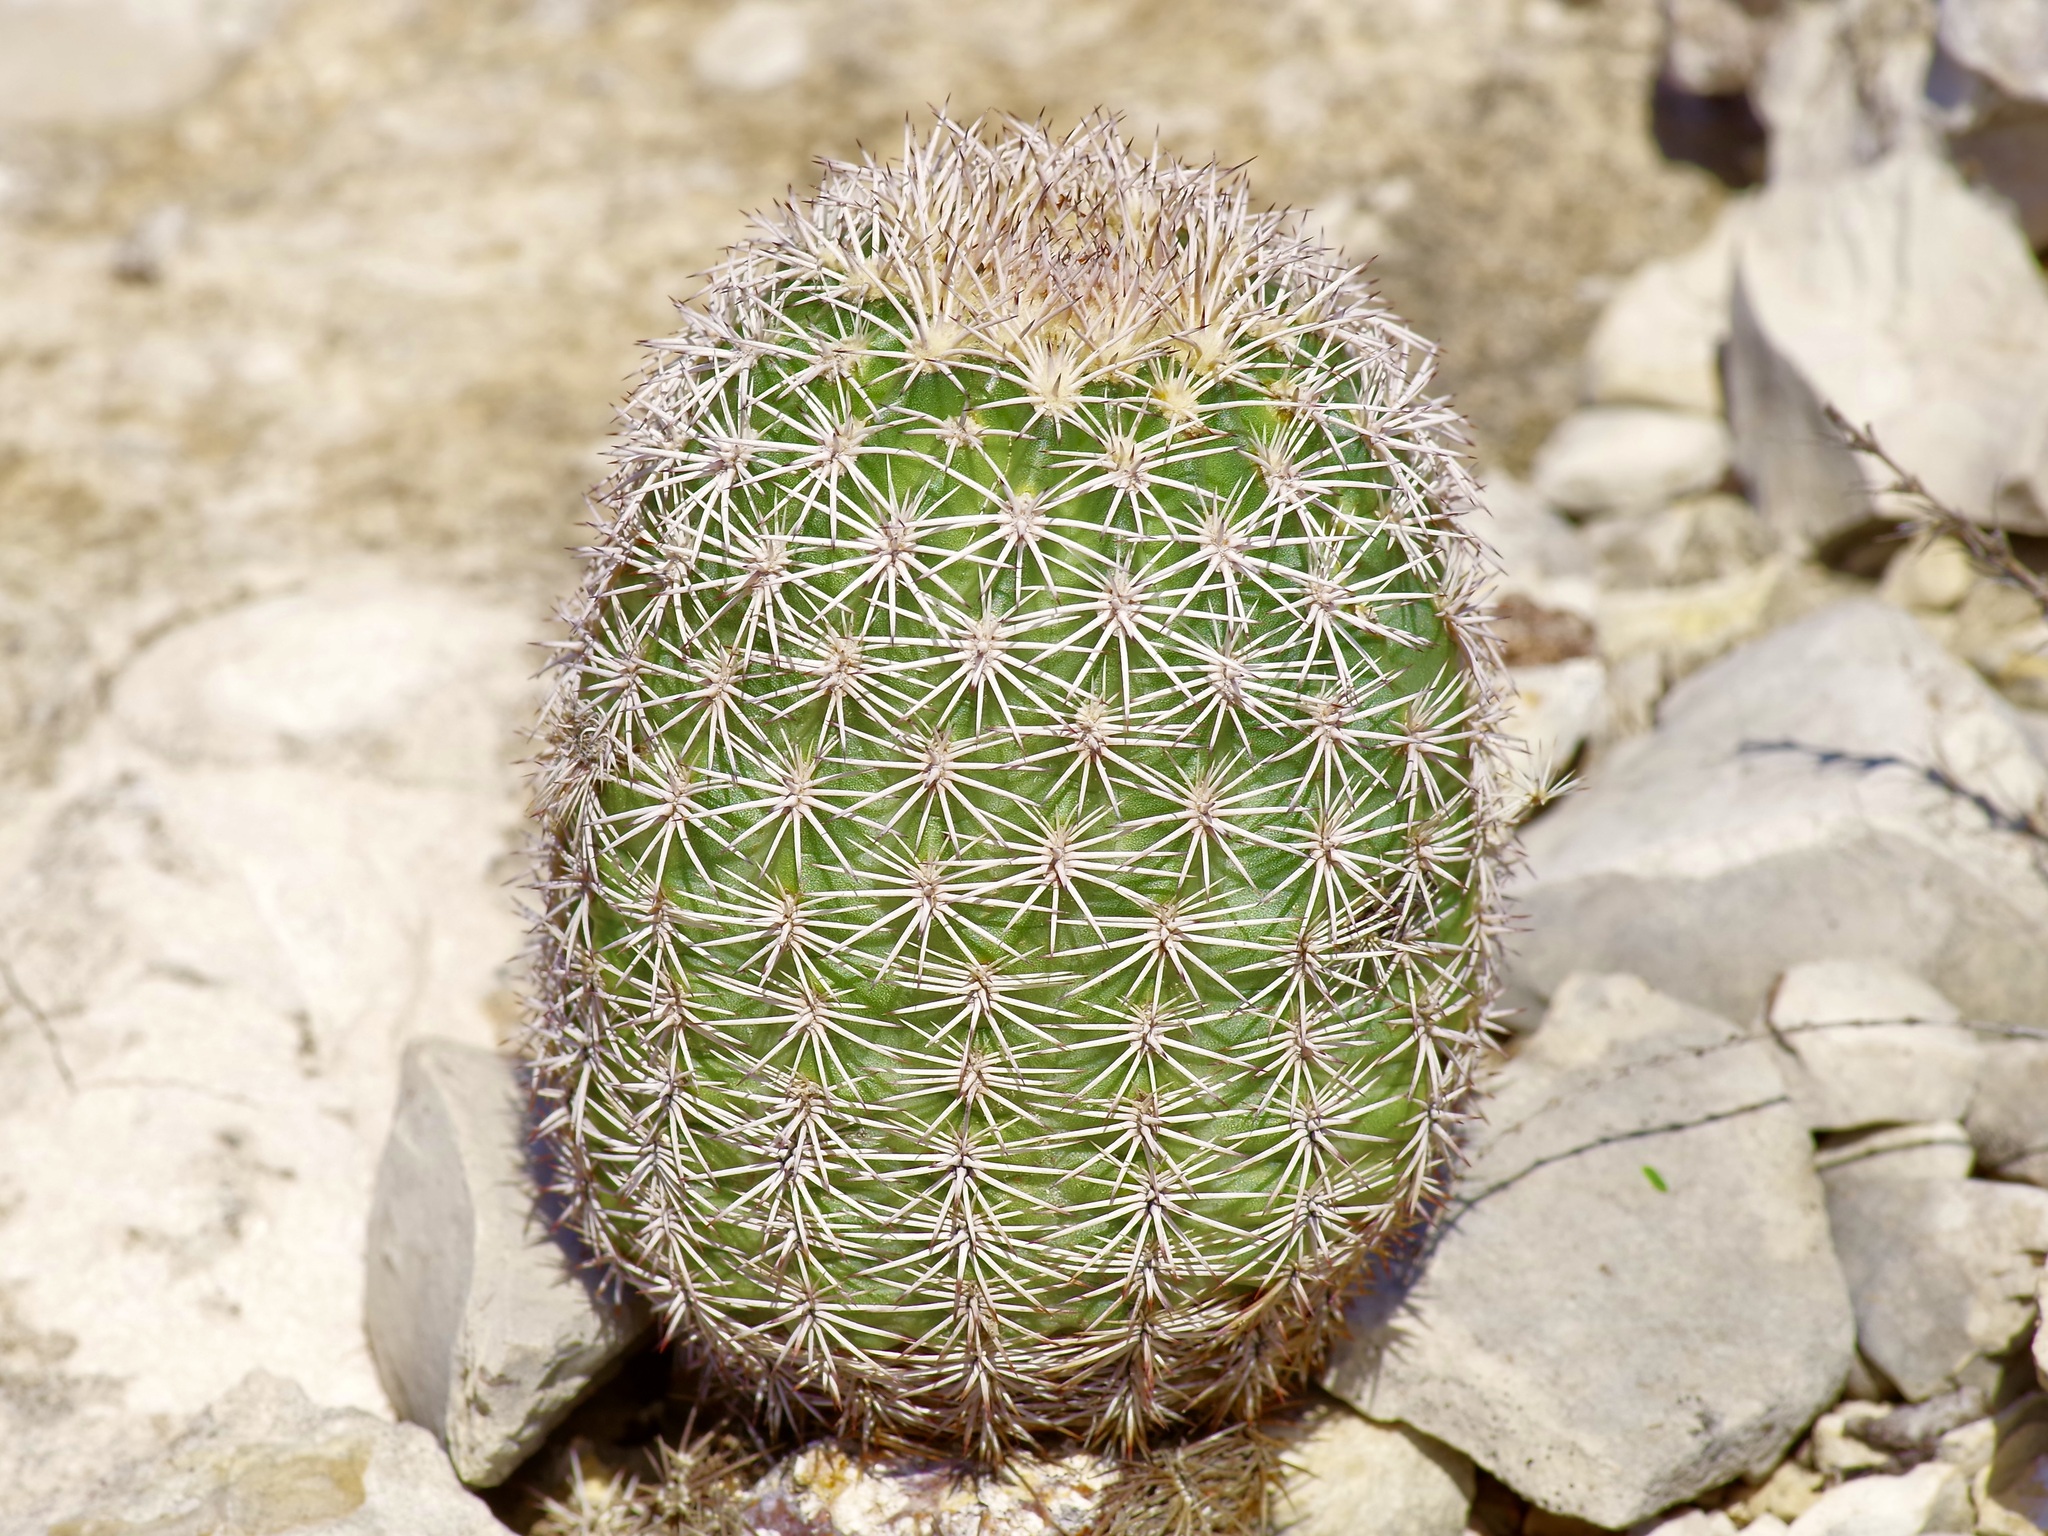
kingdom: Plantae
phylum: Tracheophyta
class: Magnoliopsida
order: Caryophyllales
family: Cactaceae
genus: Echinocereus
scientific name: Echinocereus pectinatus
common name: Rainbow cactus
